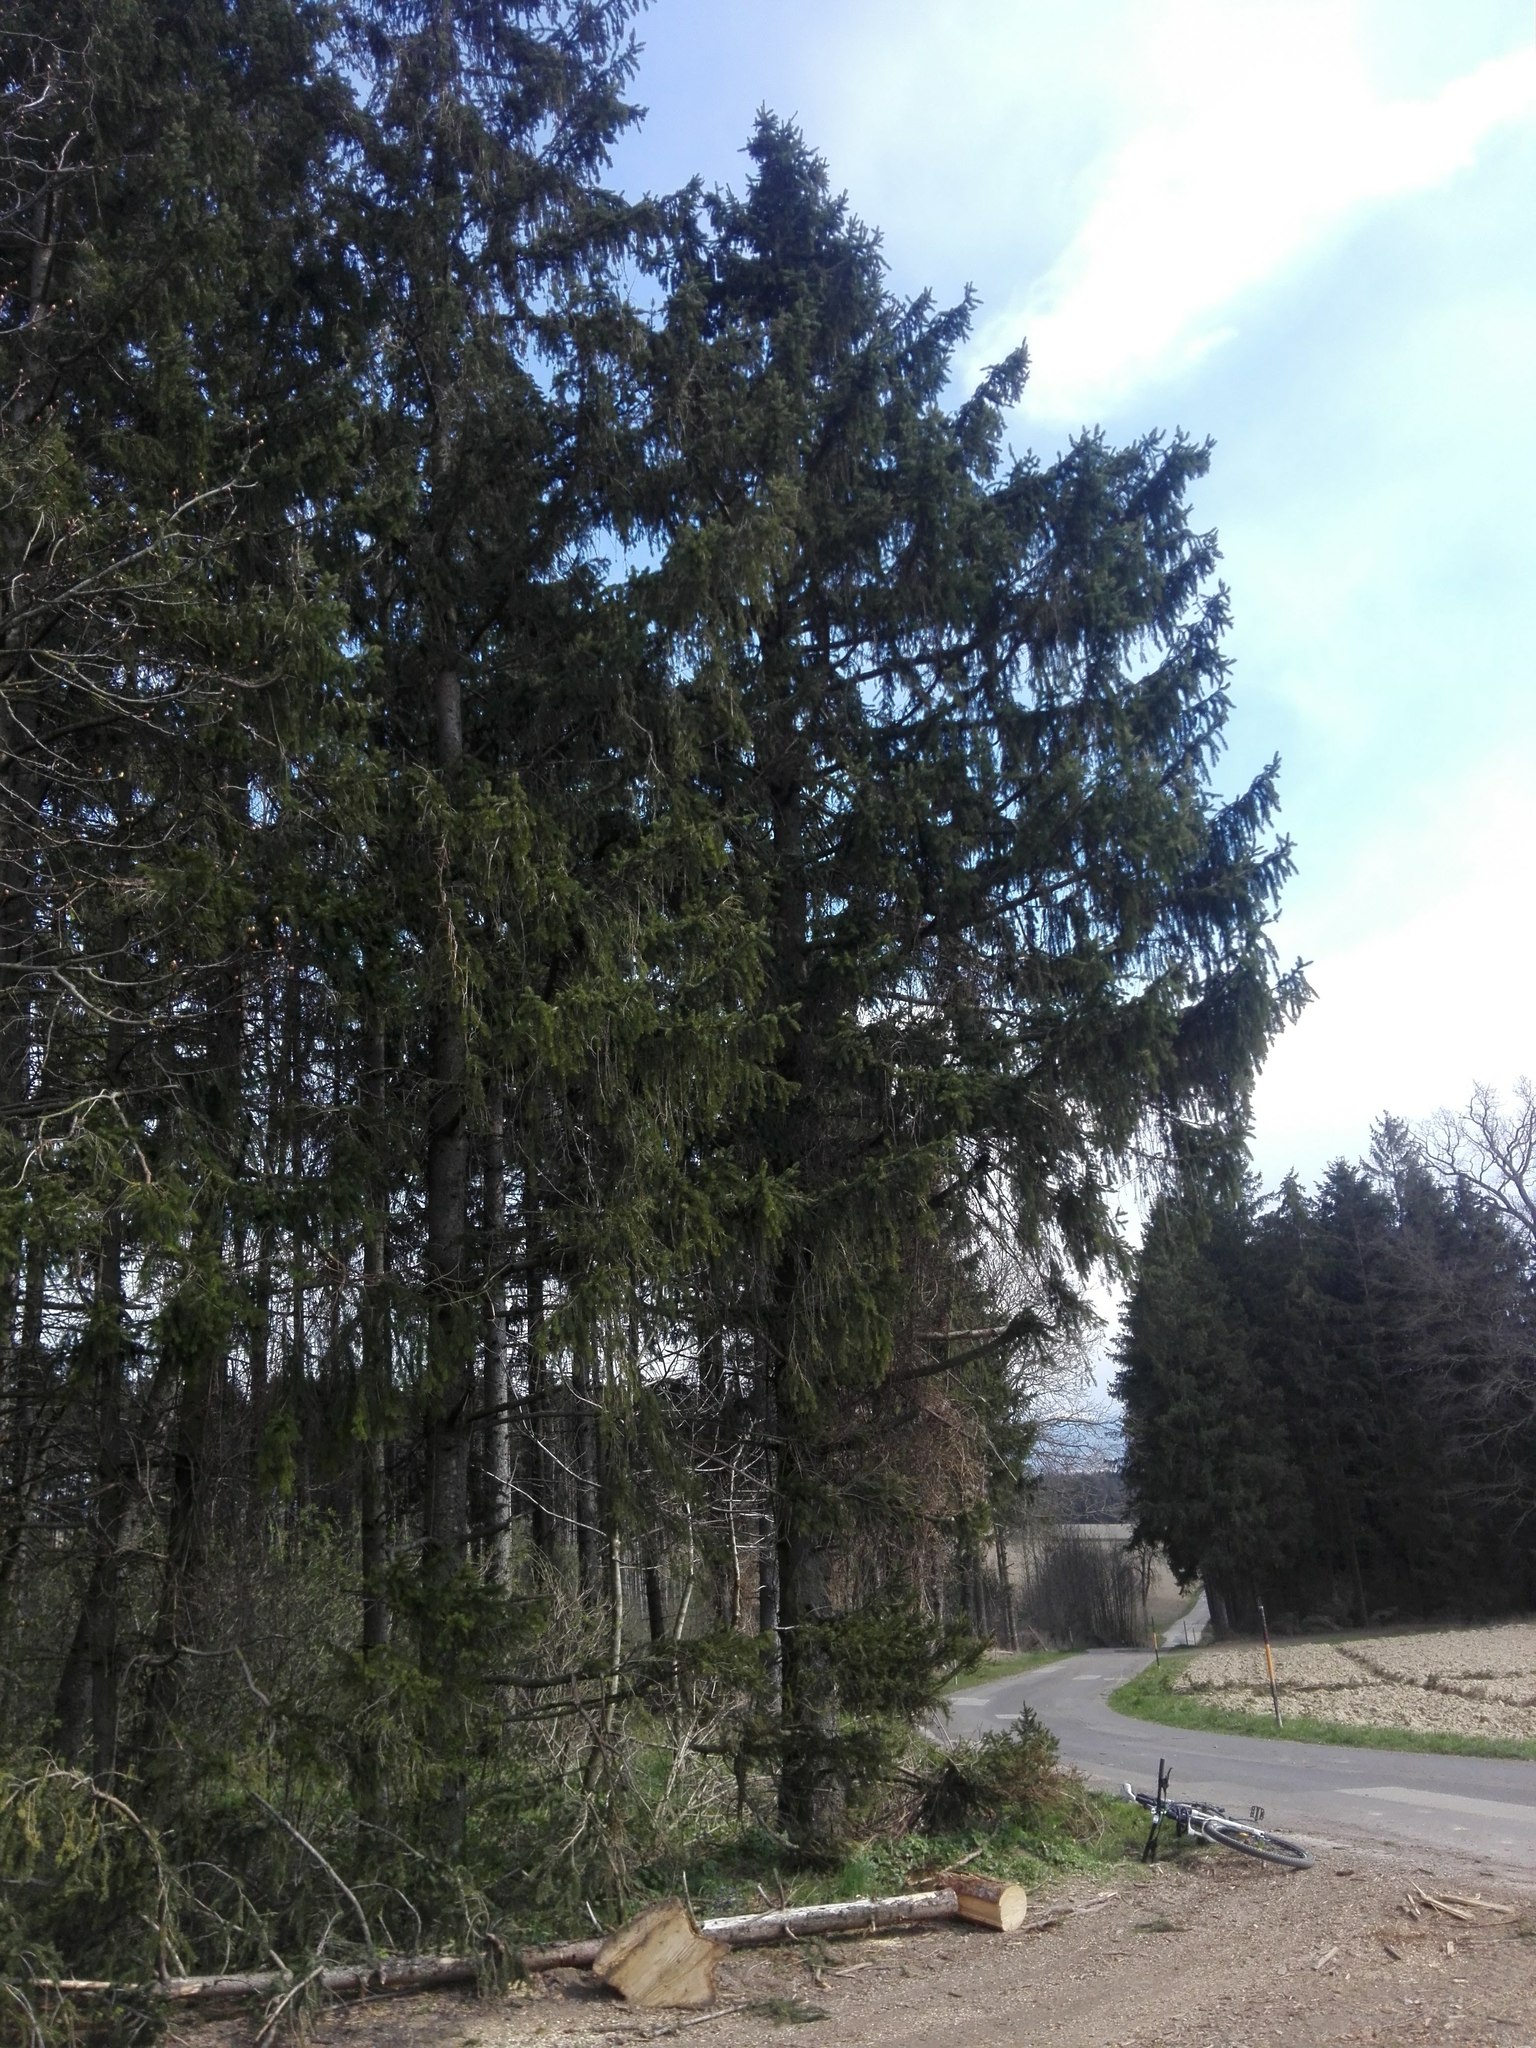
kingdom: Plantae
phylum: Tracheophyta
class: Pinopsida
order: Pinales
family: Pinaceae
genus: Picea
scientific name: Picea abies
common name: Norway spruce
